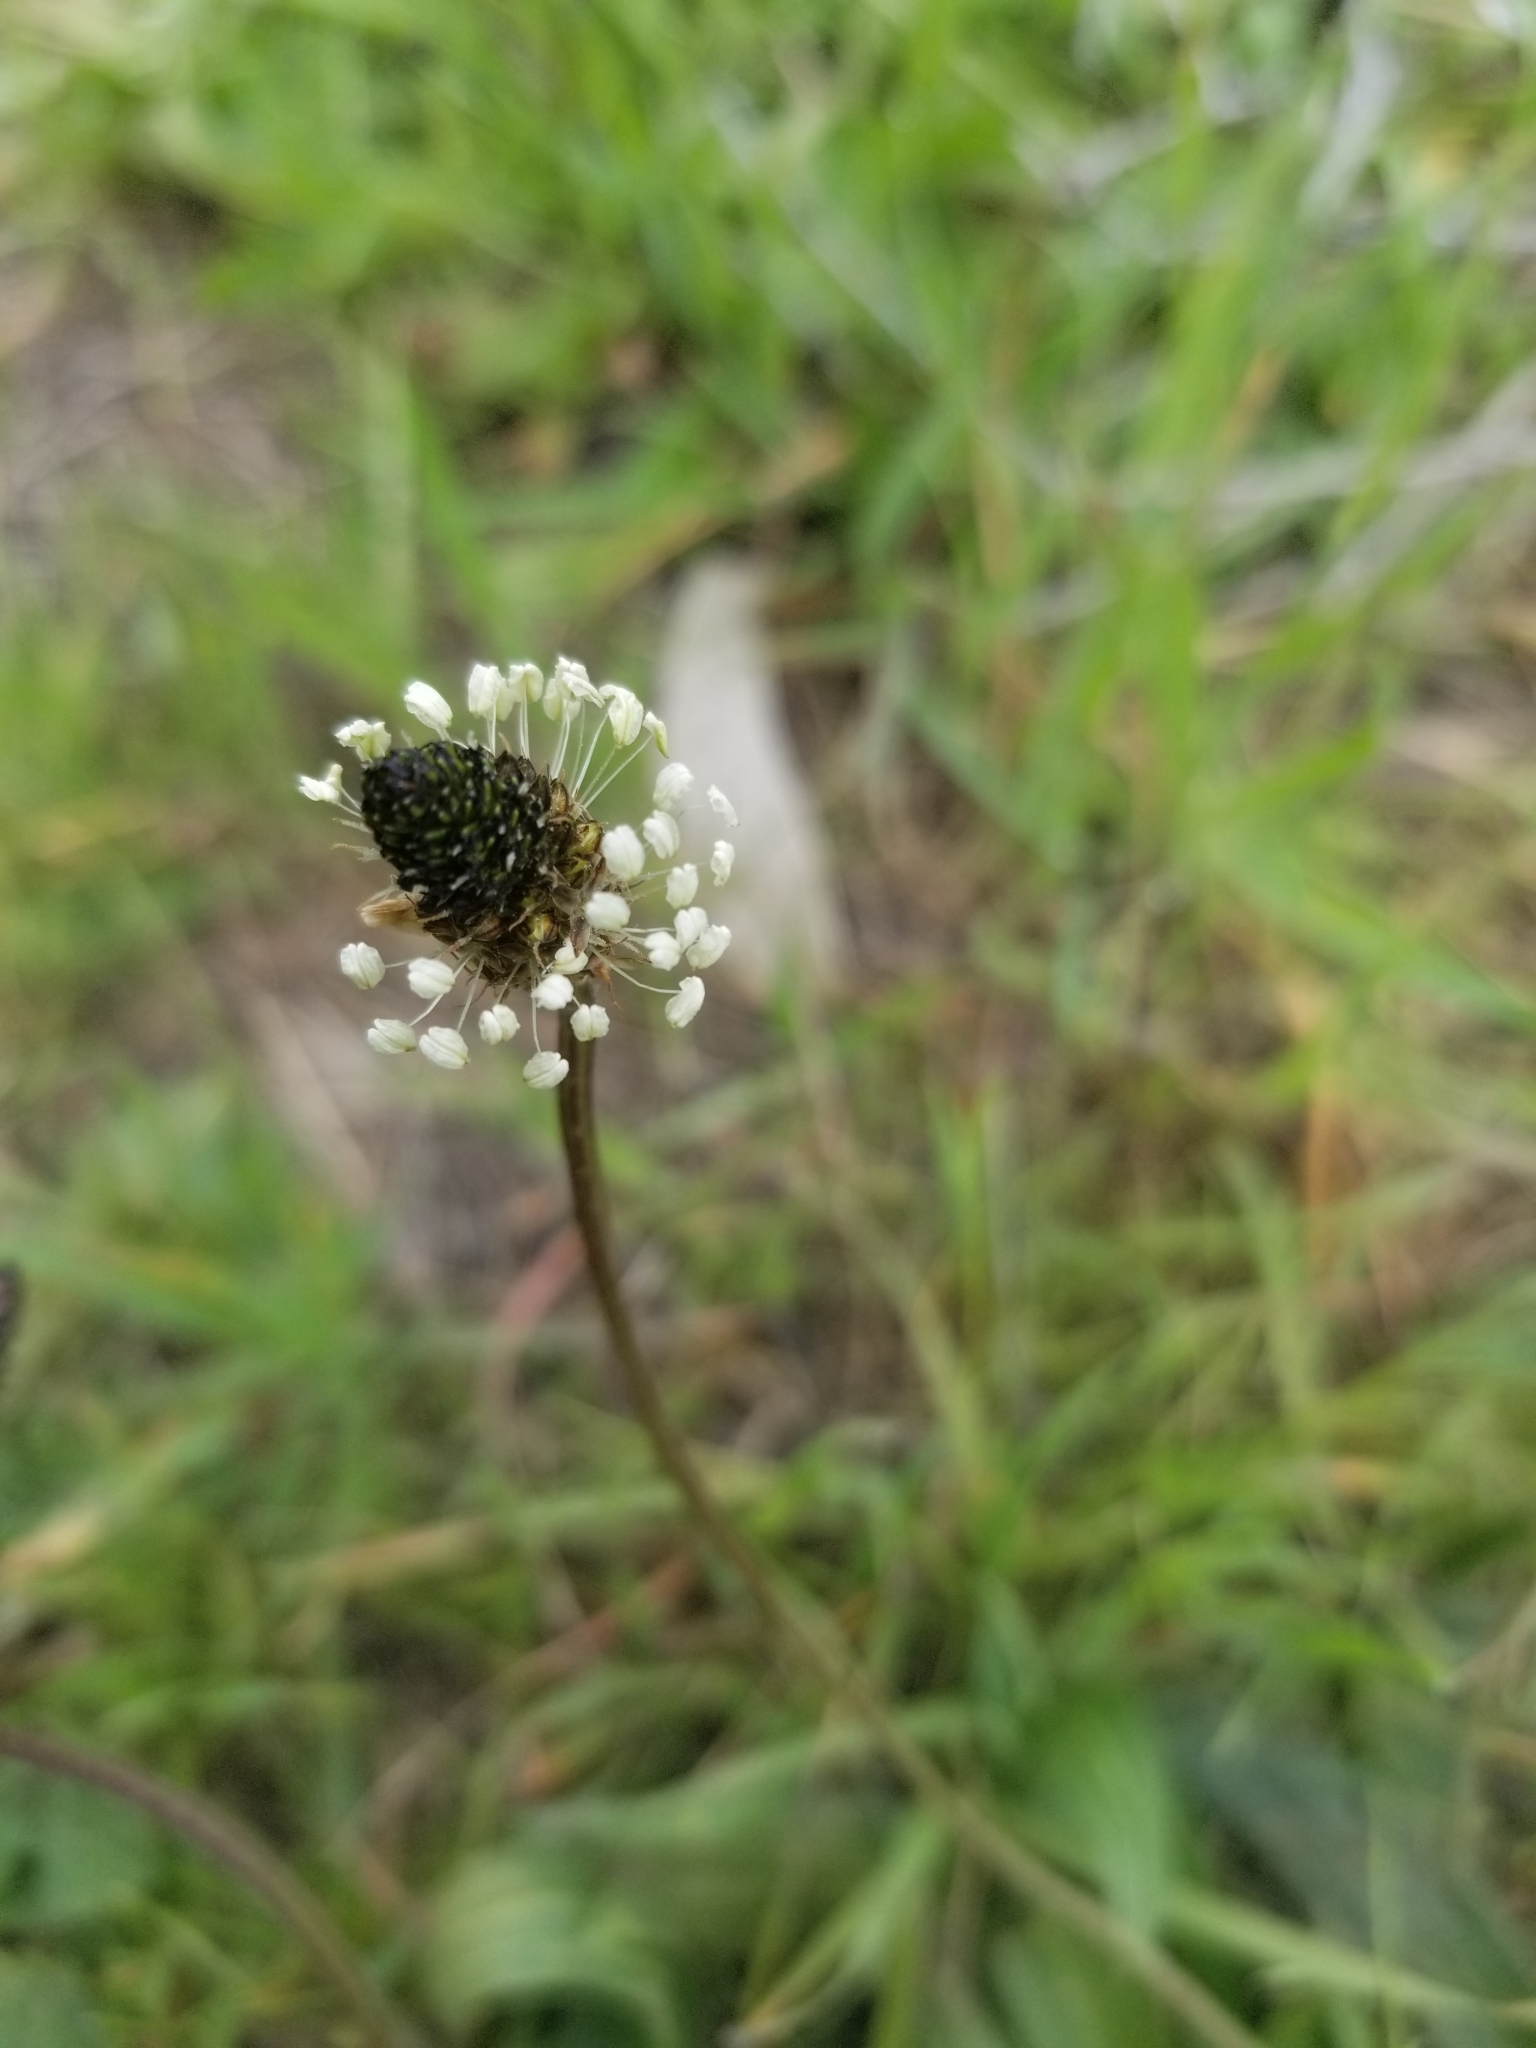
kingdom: Plantae
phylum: Tracheophyta
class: Magnoliopsida
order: Lamiales
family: Plantaginaceae
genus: Plantago
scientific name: Plantago lanceolata
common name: Ribwort plantain
